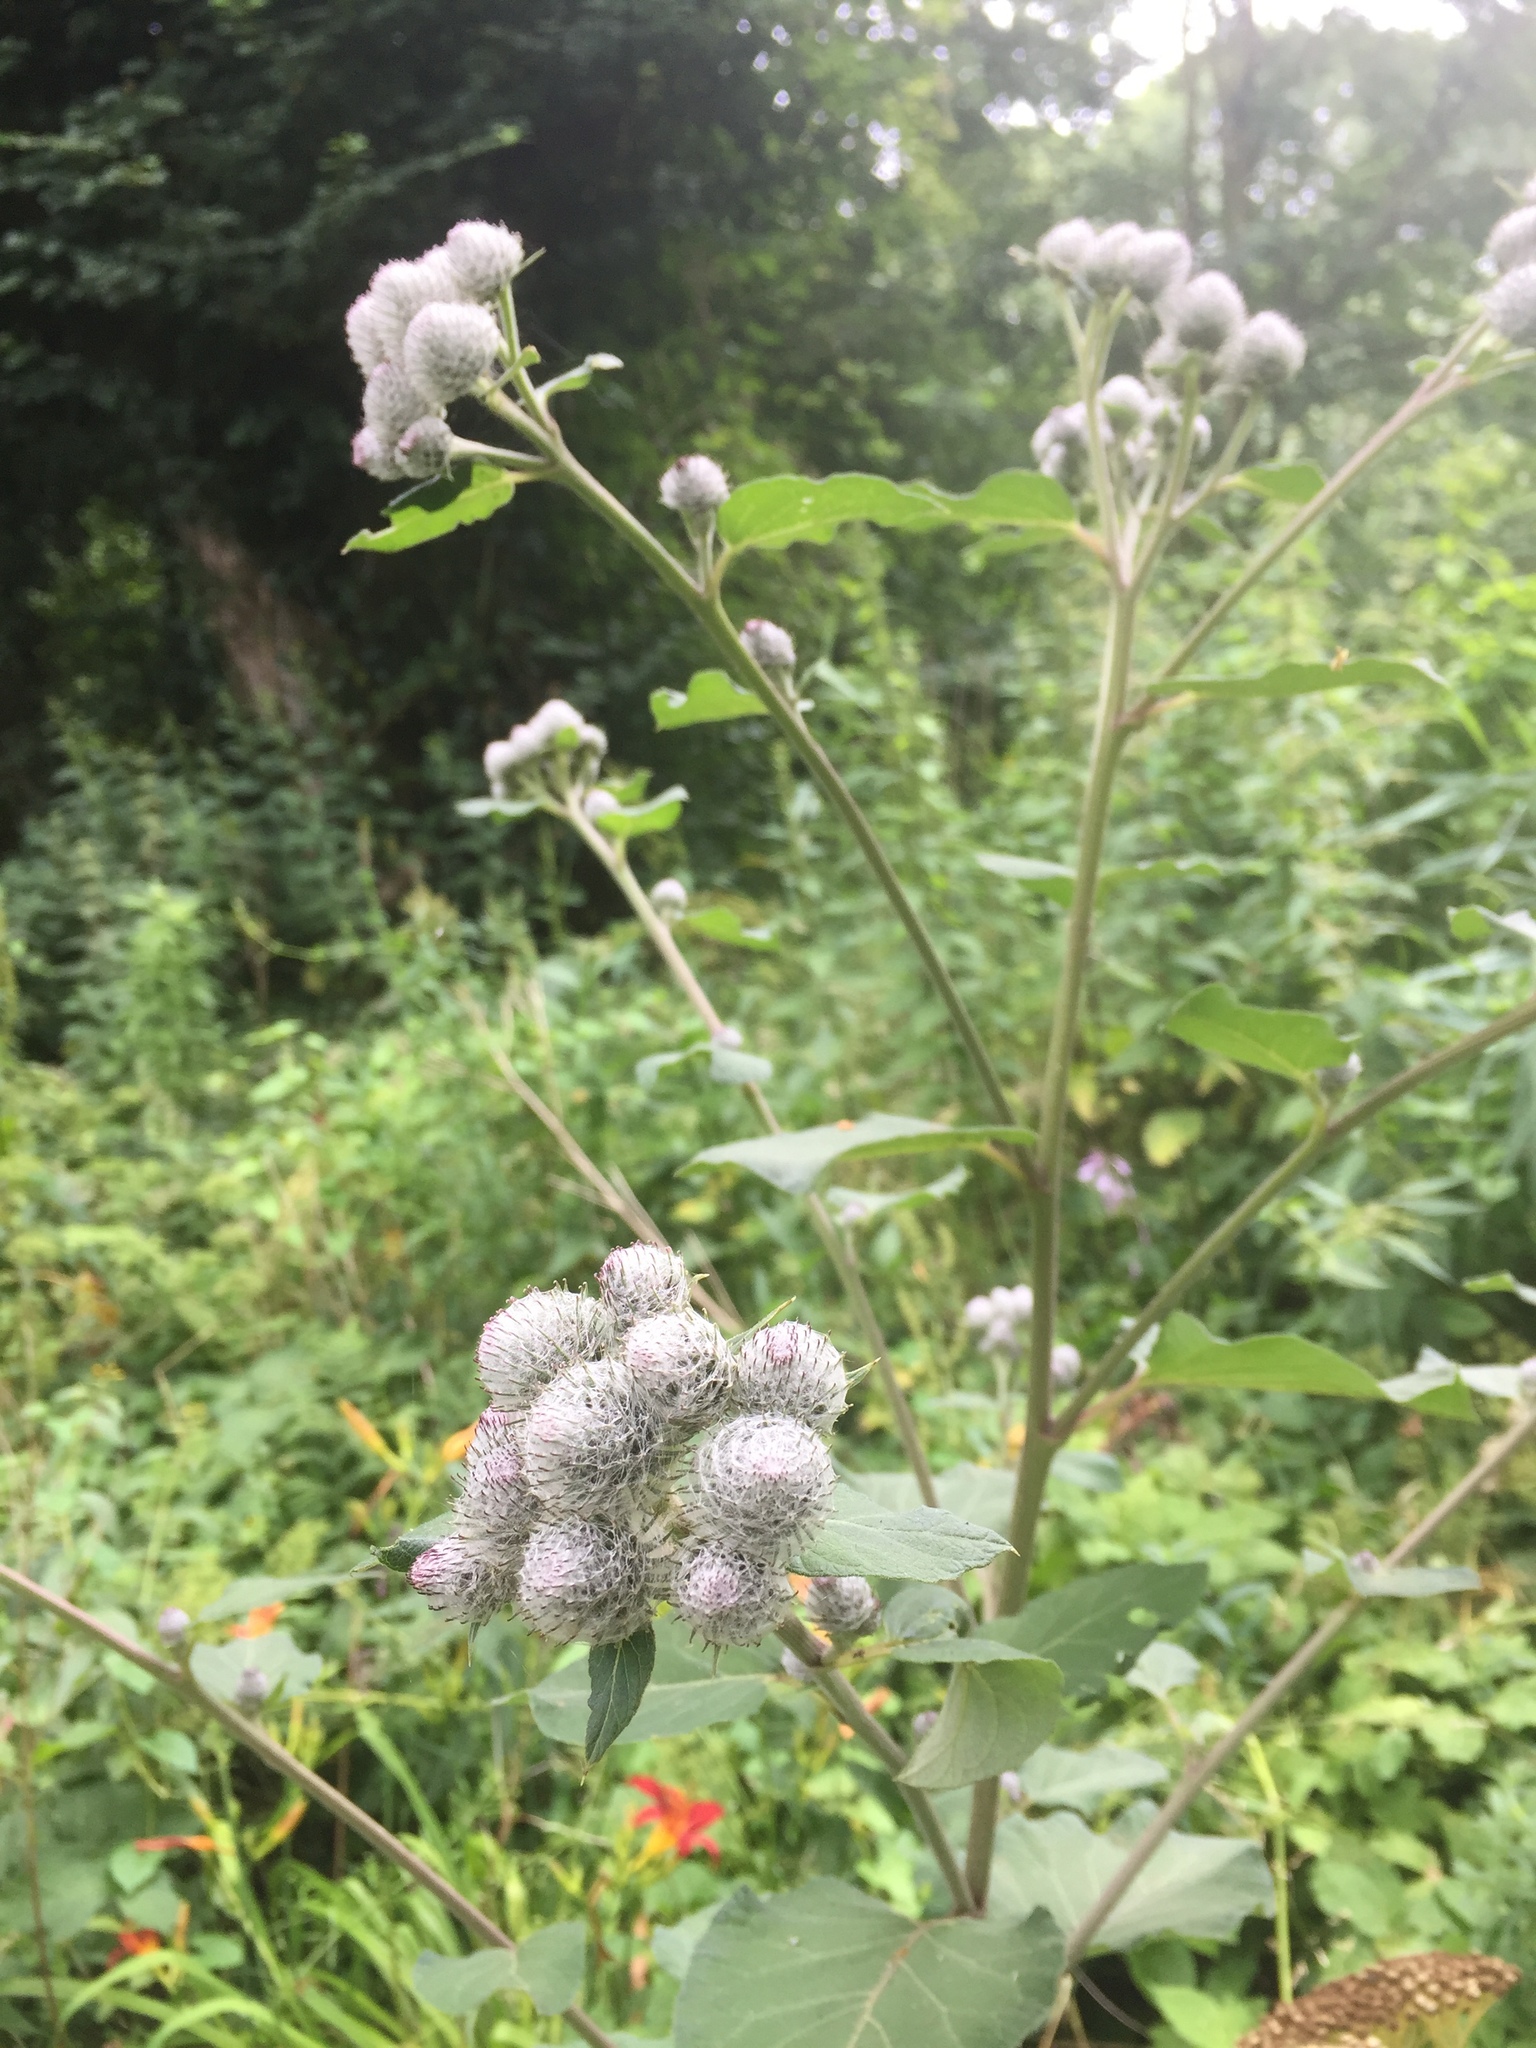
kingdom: Plantae
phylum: Tracheophyta
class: Magnoliopsida
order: Asterales
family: Asteraceae
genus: Arctium
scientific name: Arctium tomentosum
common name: Woolly burdock
